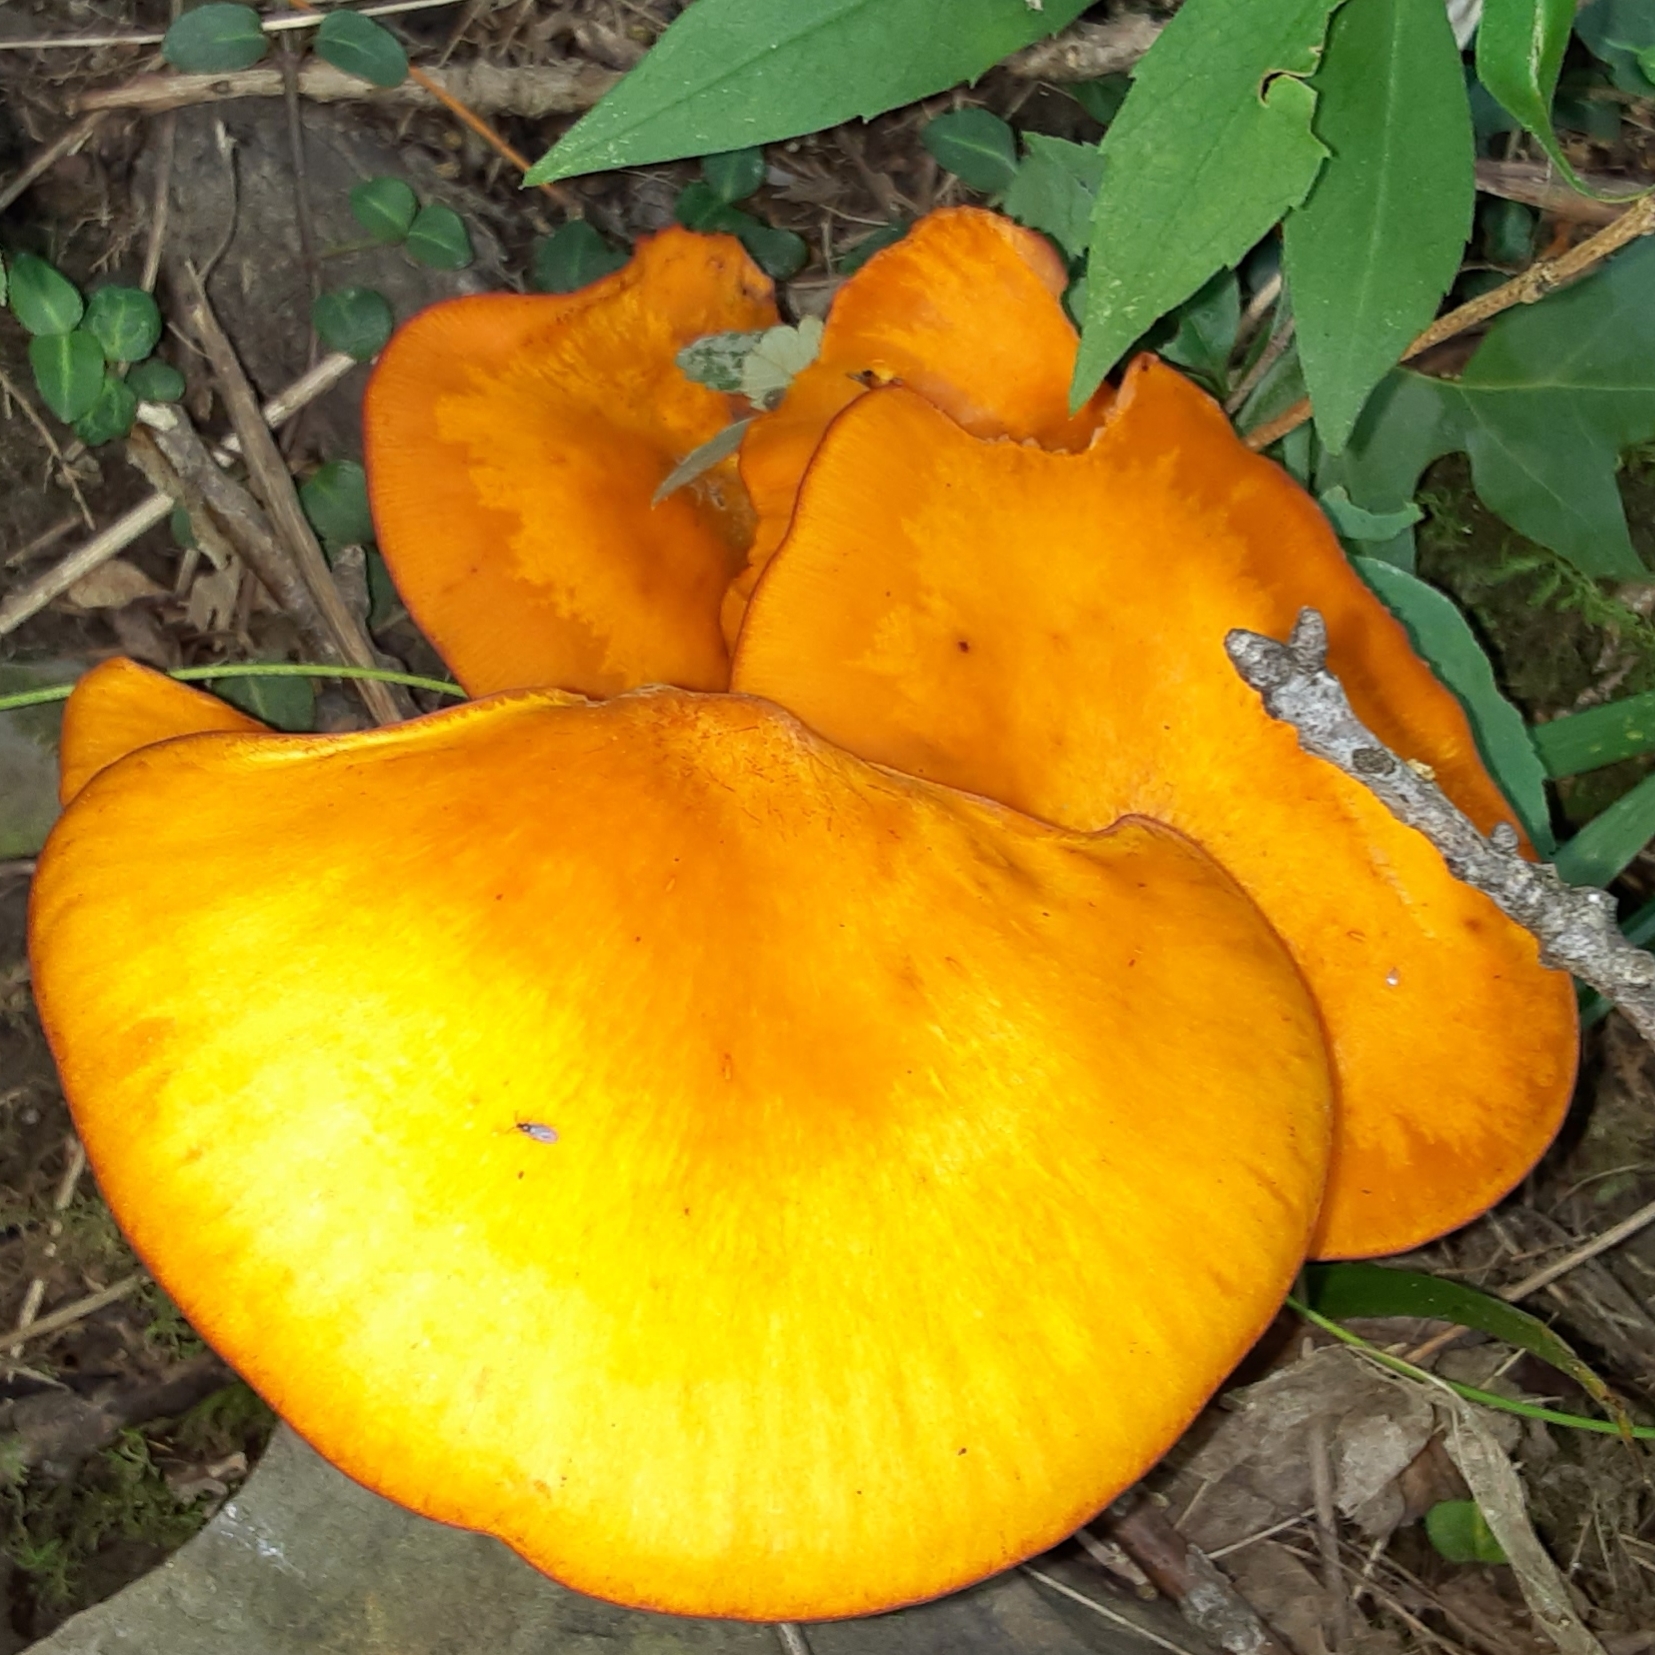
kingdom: Fungi
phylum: Basidiomycota
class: Agaricomycetes
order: Agaricales
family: Omphalotaceae
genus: Omphalotus
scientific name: Omphalotus illudens
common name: Jack o lantern
